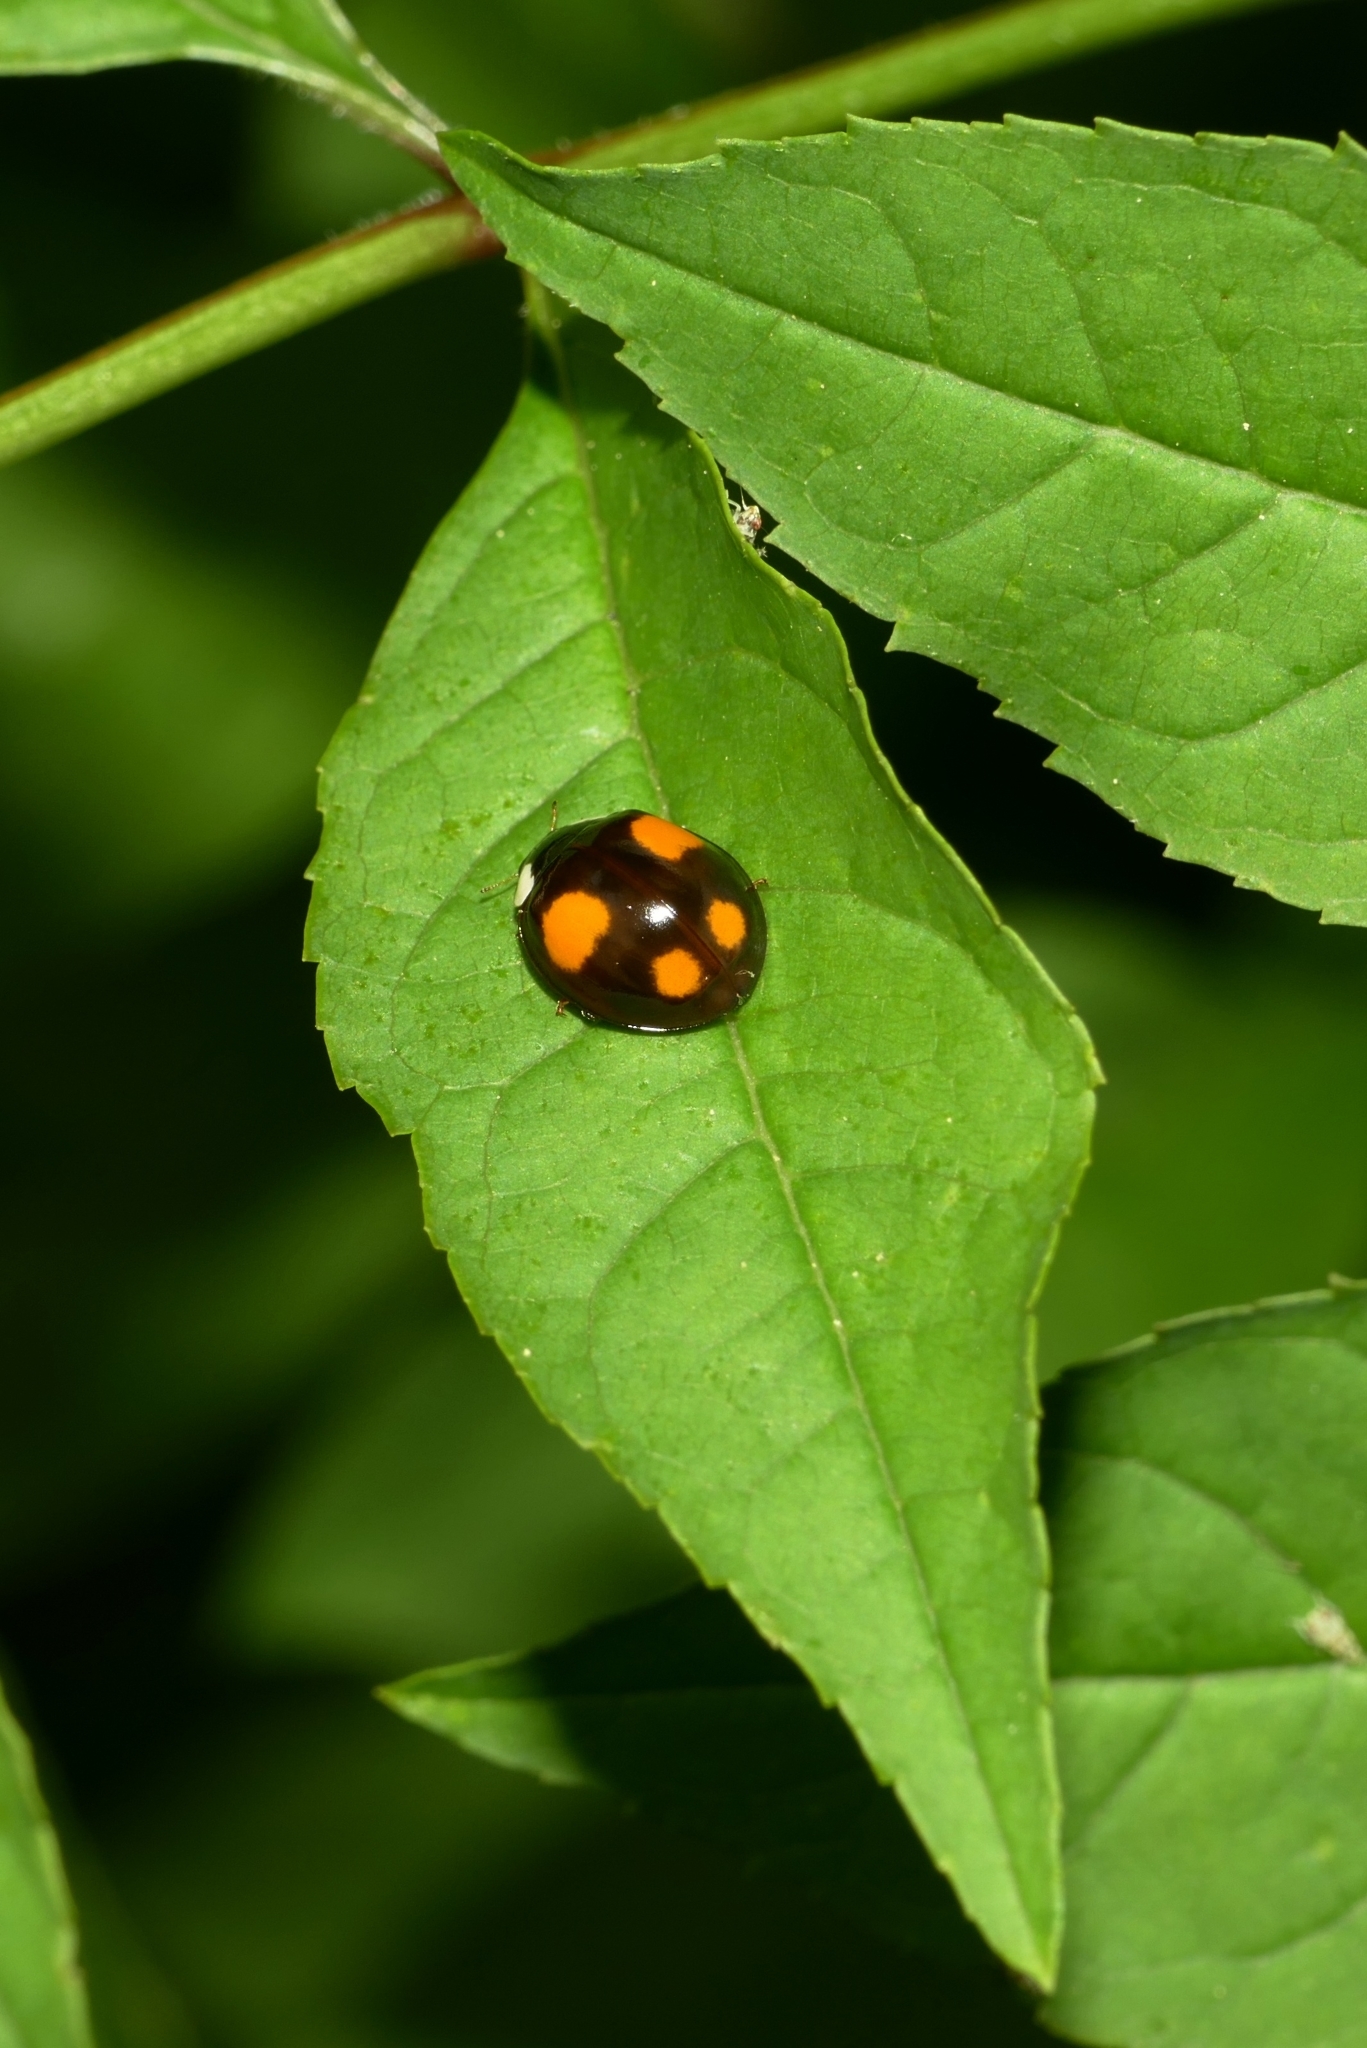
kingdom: Animalia
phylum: Arthropoda
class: Insecta
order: Coleoptera
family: Coccinellidae
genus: Harmonia
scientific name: Harmonia axyridis
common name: Harlequin ladybird
